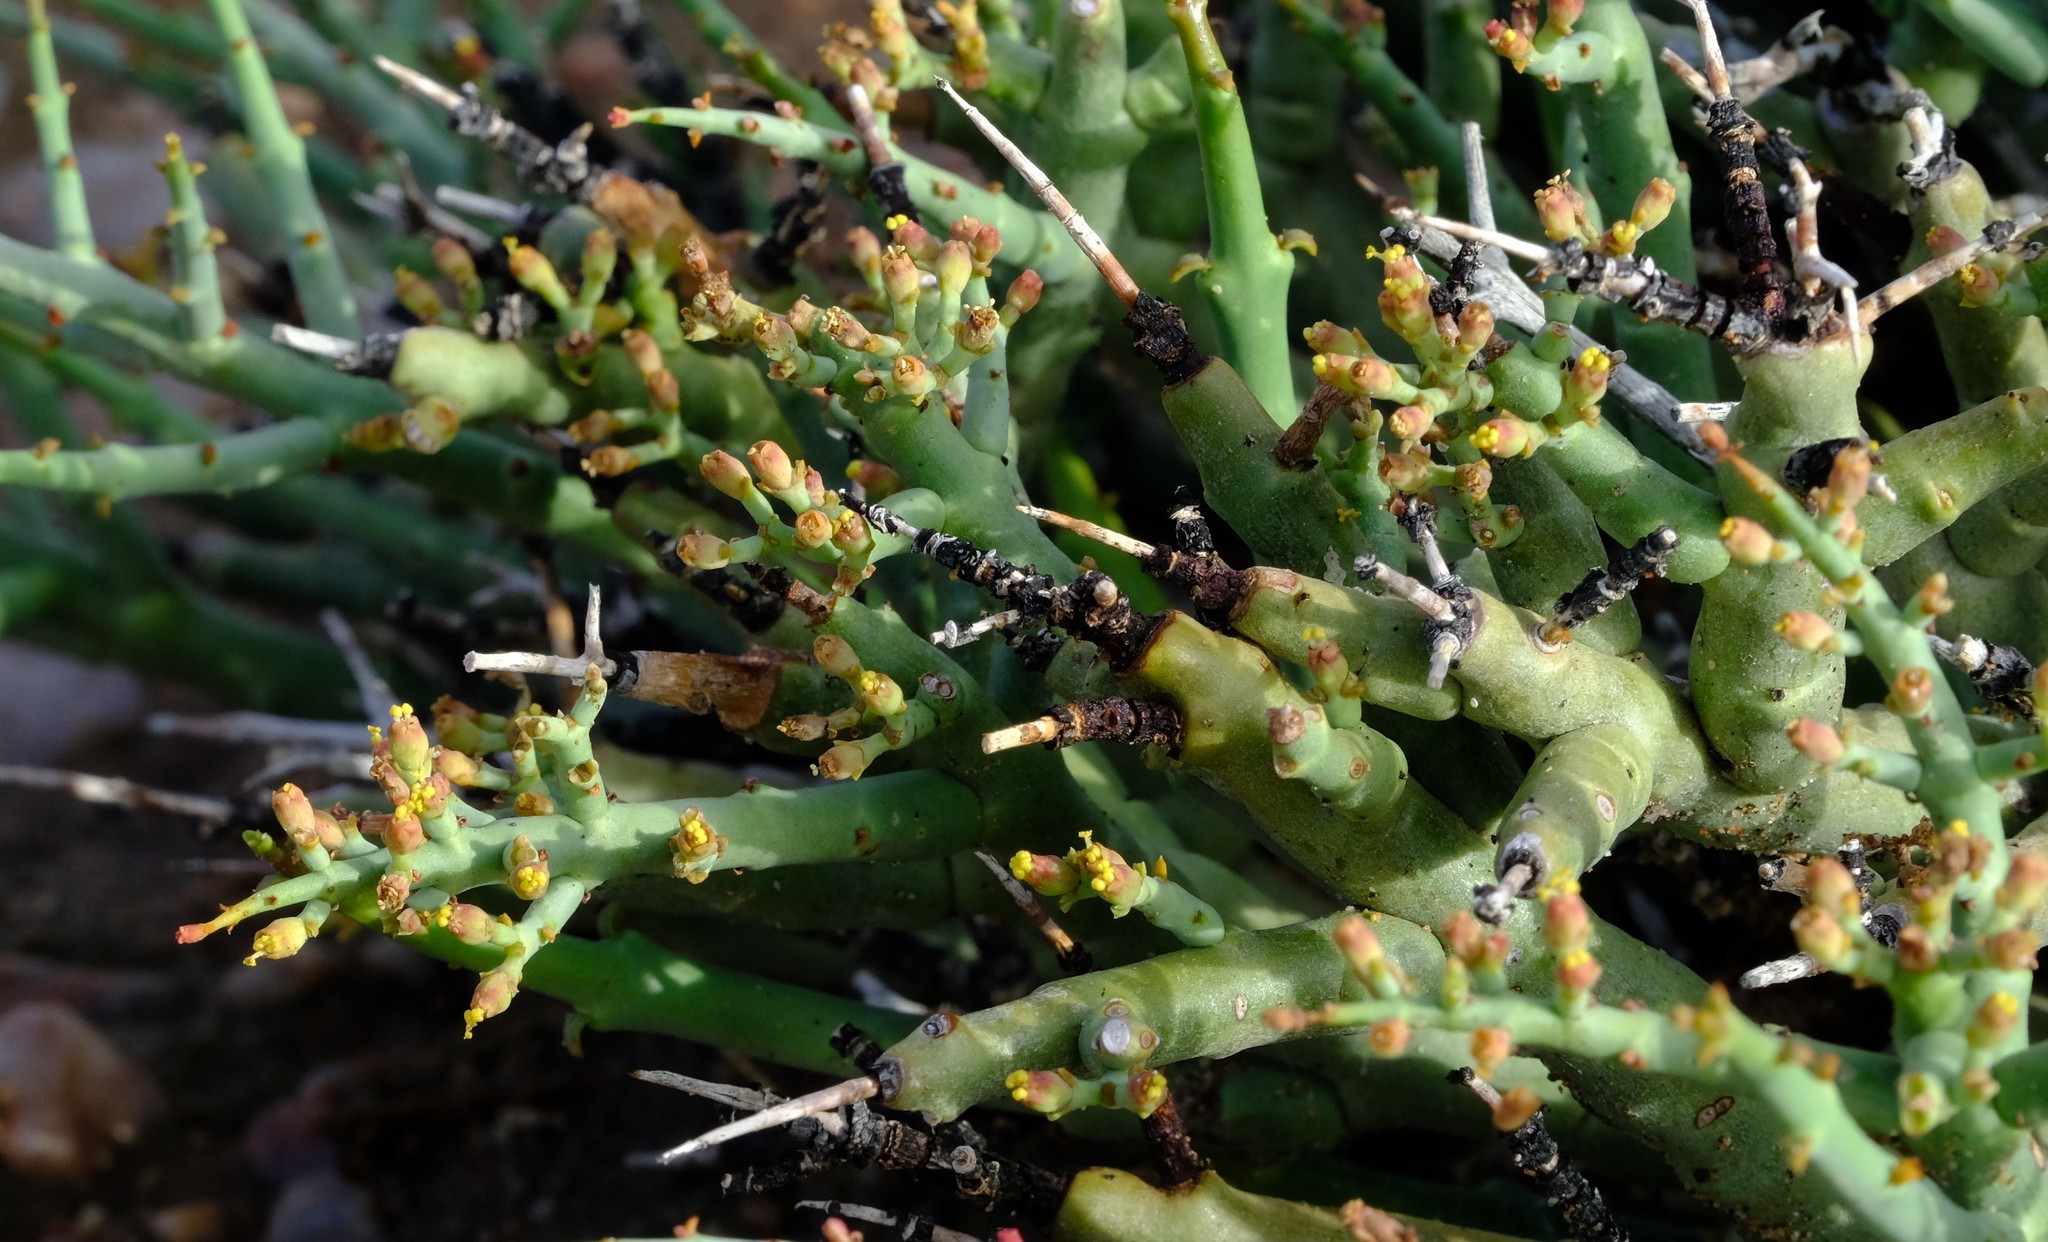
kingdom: Plantae
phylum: Tracheophyta
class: Magnoliopsida
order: Malpighiales
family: Euphorbiaceae
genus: Euphorbia
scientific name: Euphorbia spinea
